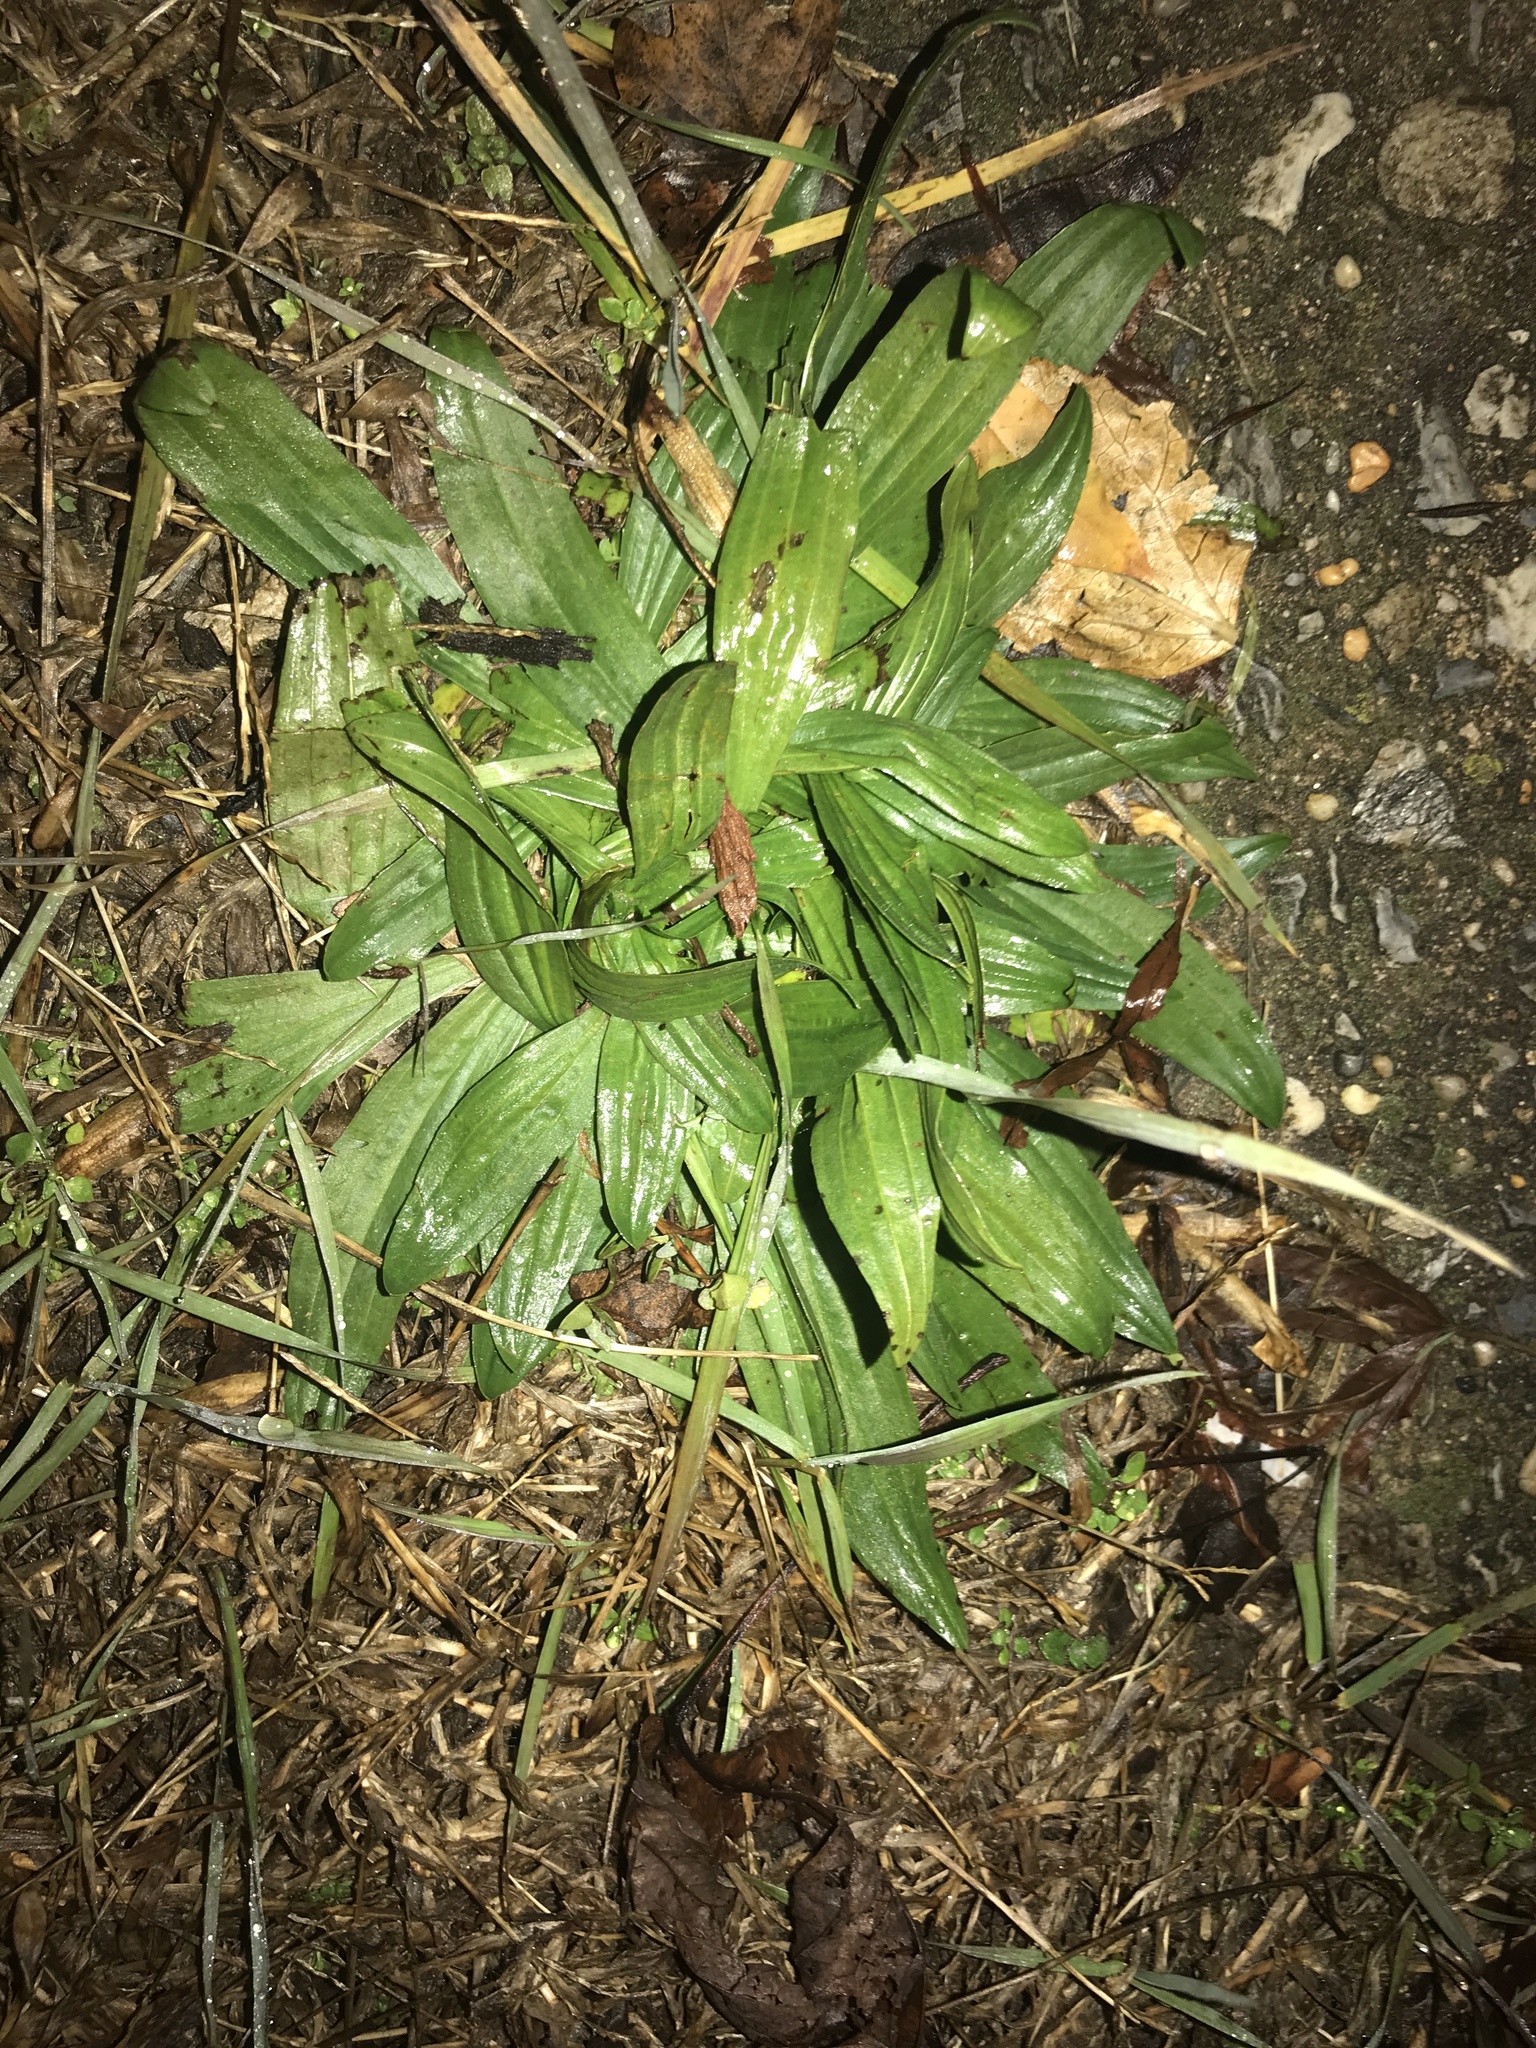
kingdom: Plantae
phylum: Tracheophyta
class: Magnoliopsida
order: Lamiales
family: Plantaginaceae
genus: Plantago
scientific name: Plantago lanceolata
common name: Ribwort plantain
